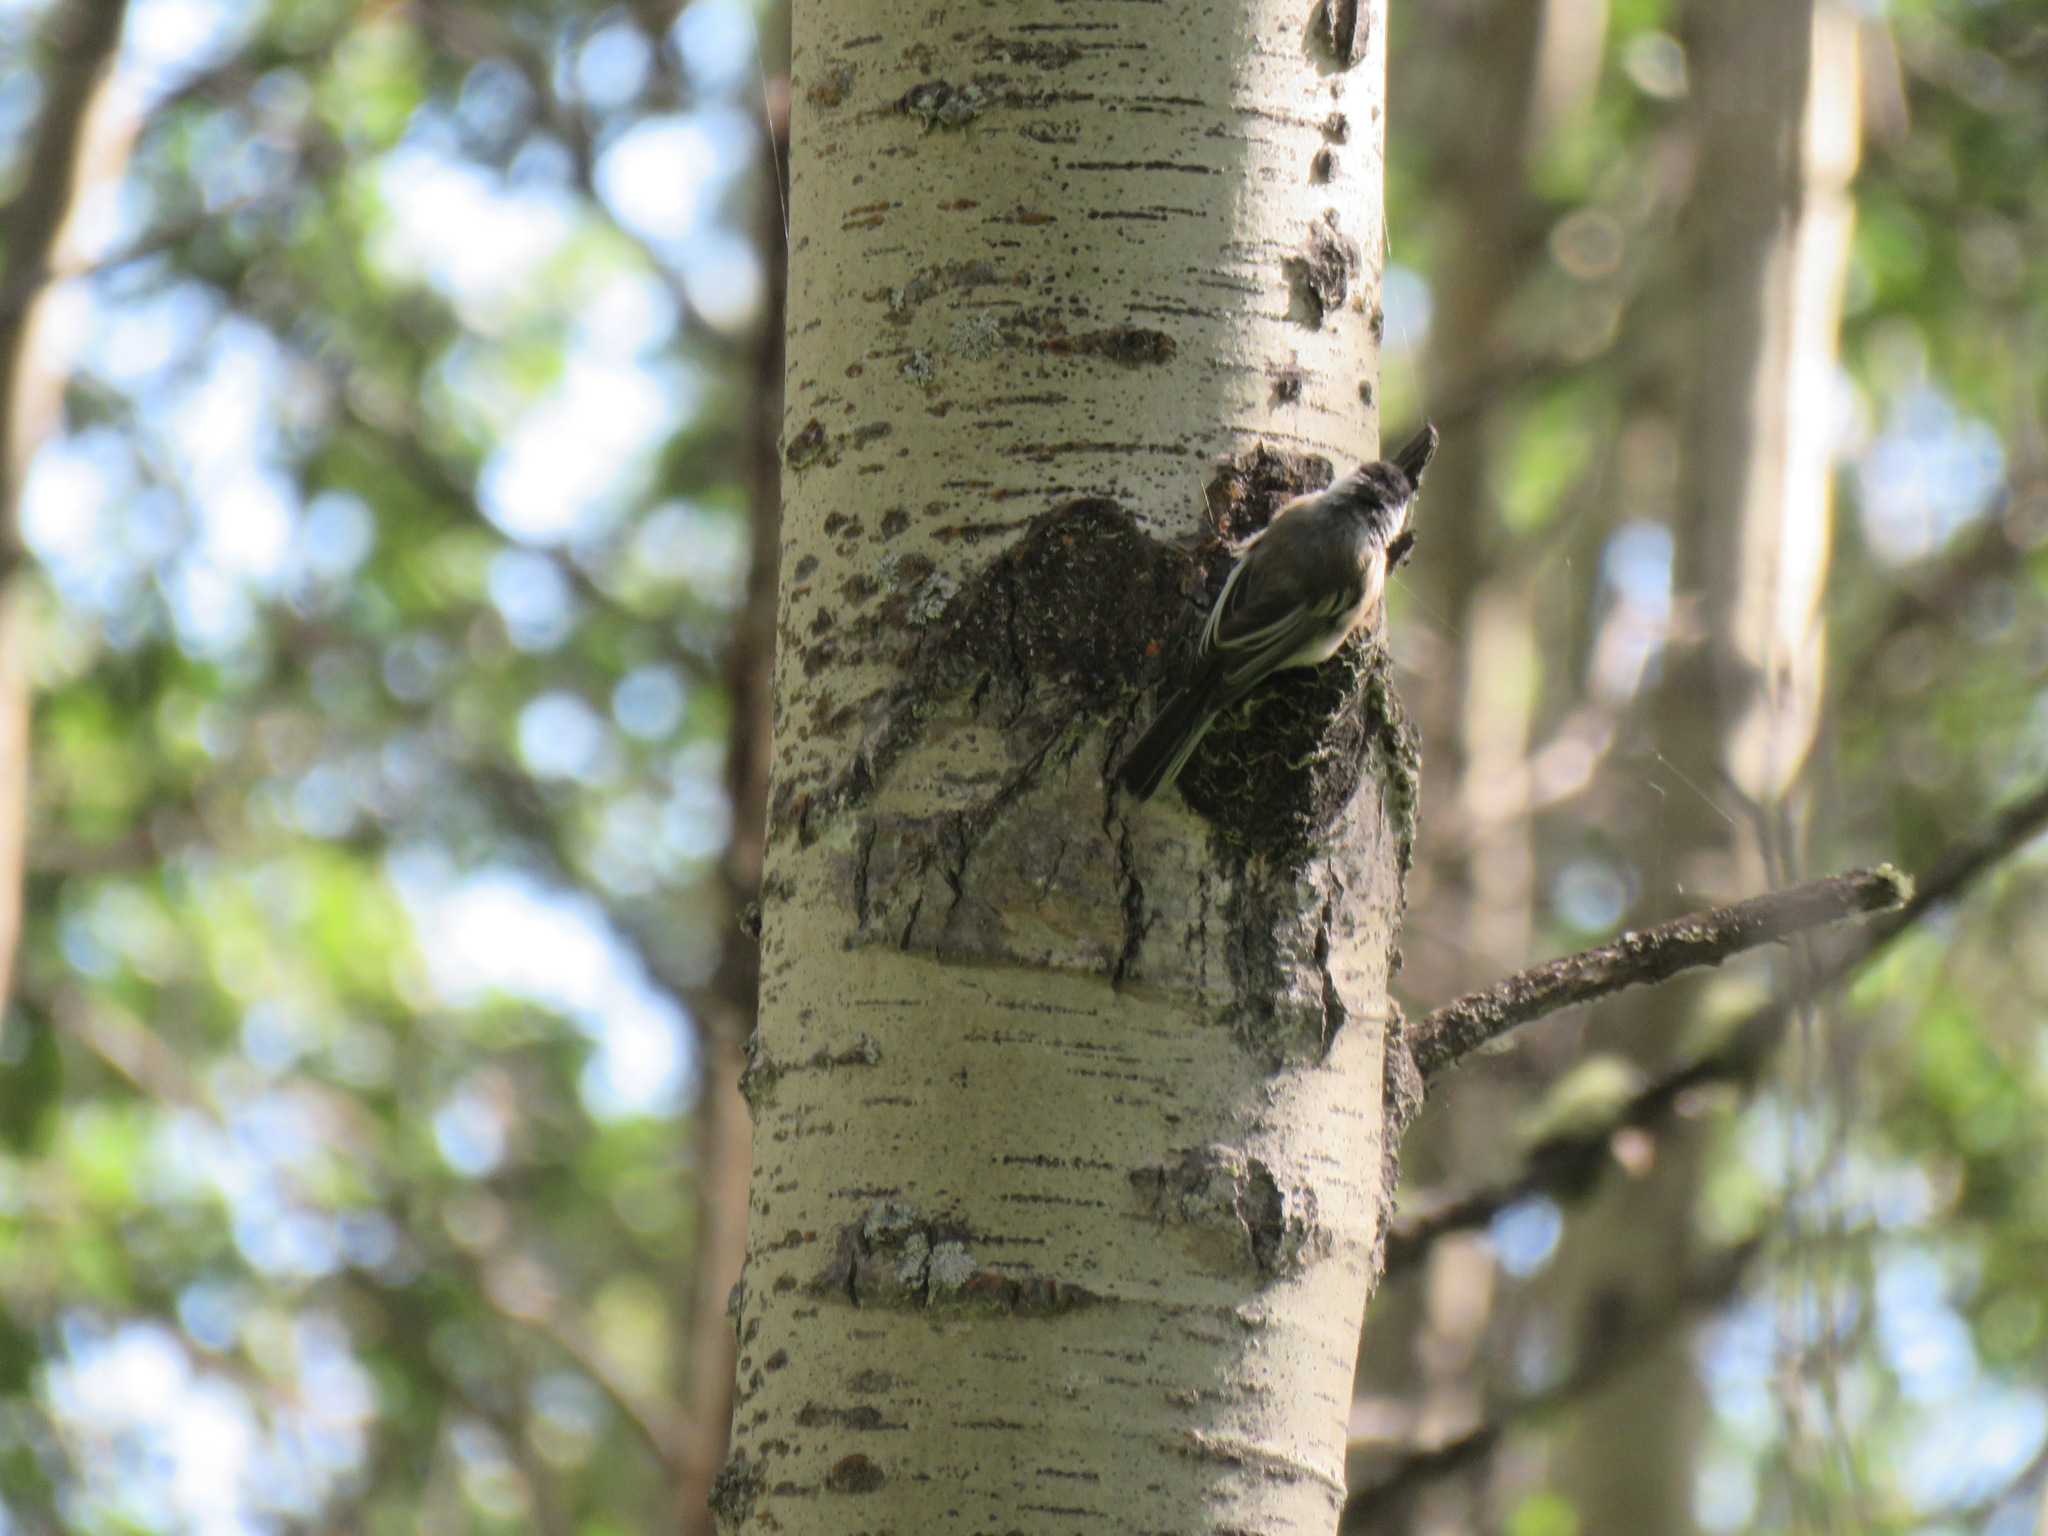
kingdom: Animalia
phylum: Chordata
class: Aves
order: Passeriformes
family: Paridae
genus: Poecile
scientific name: Poecile atricapillus
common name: Black-capped chickadee
